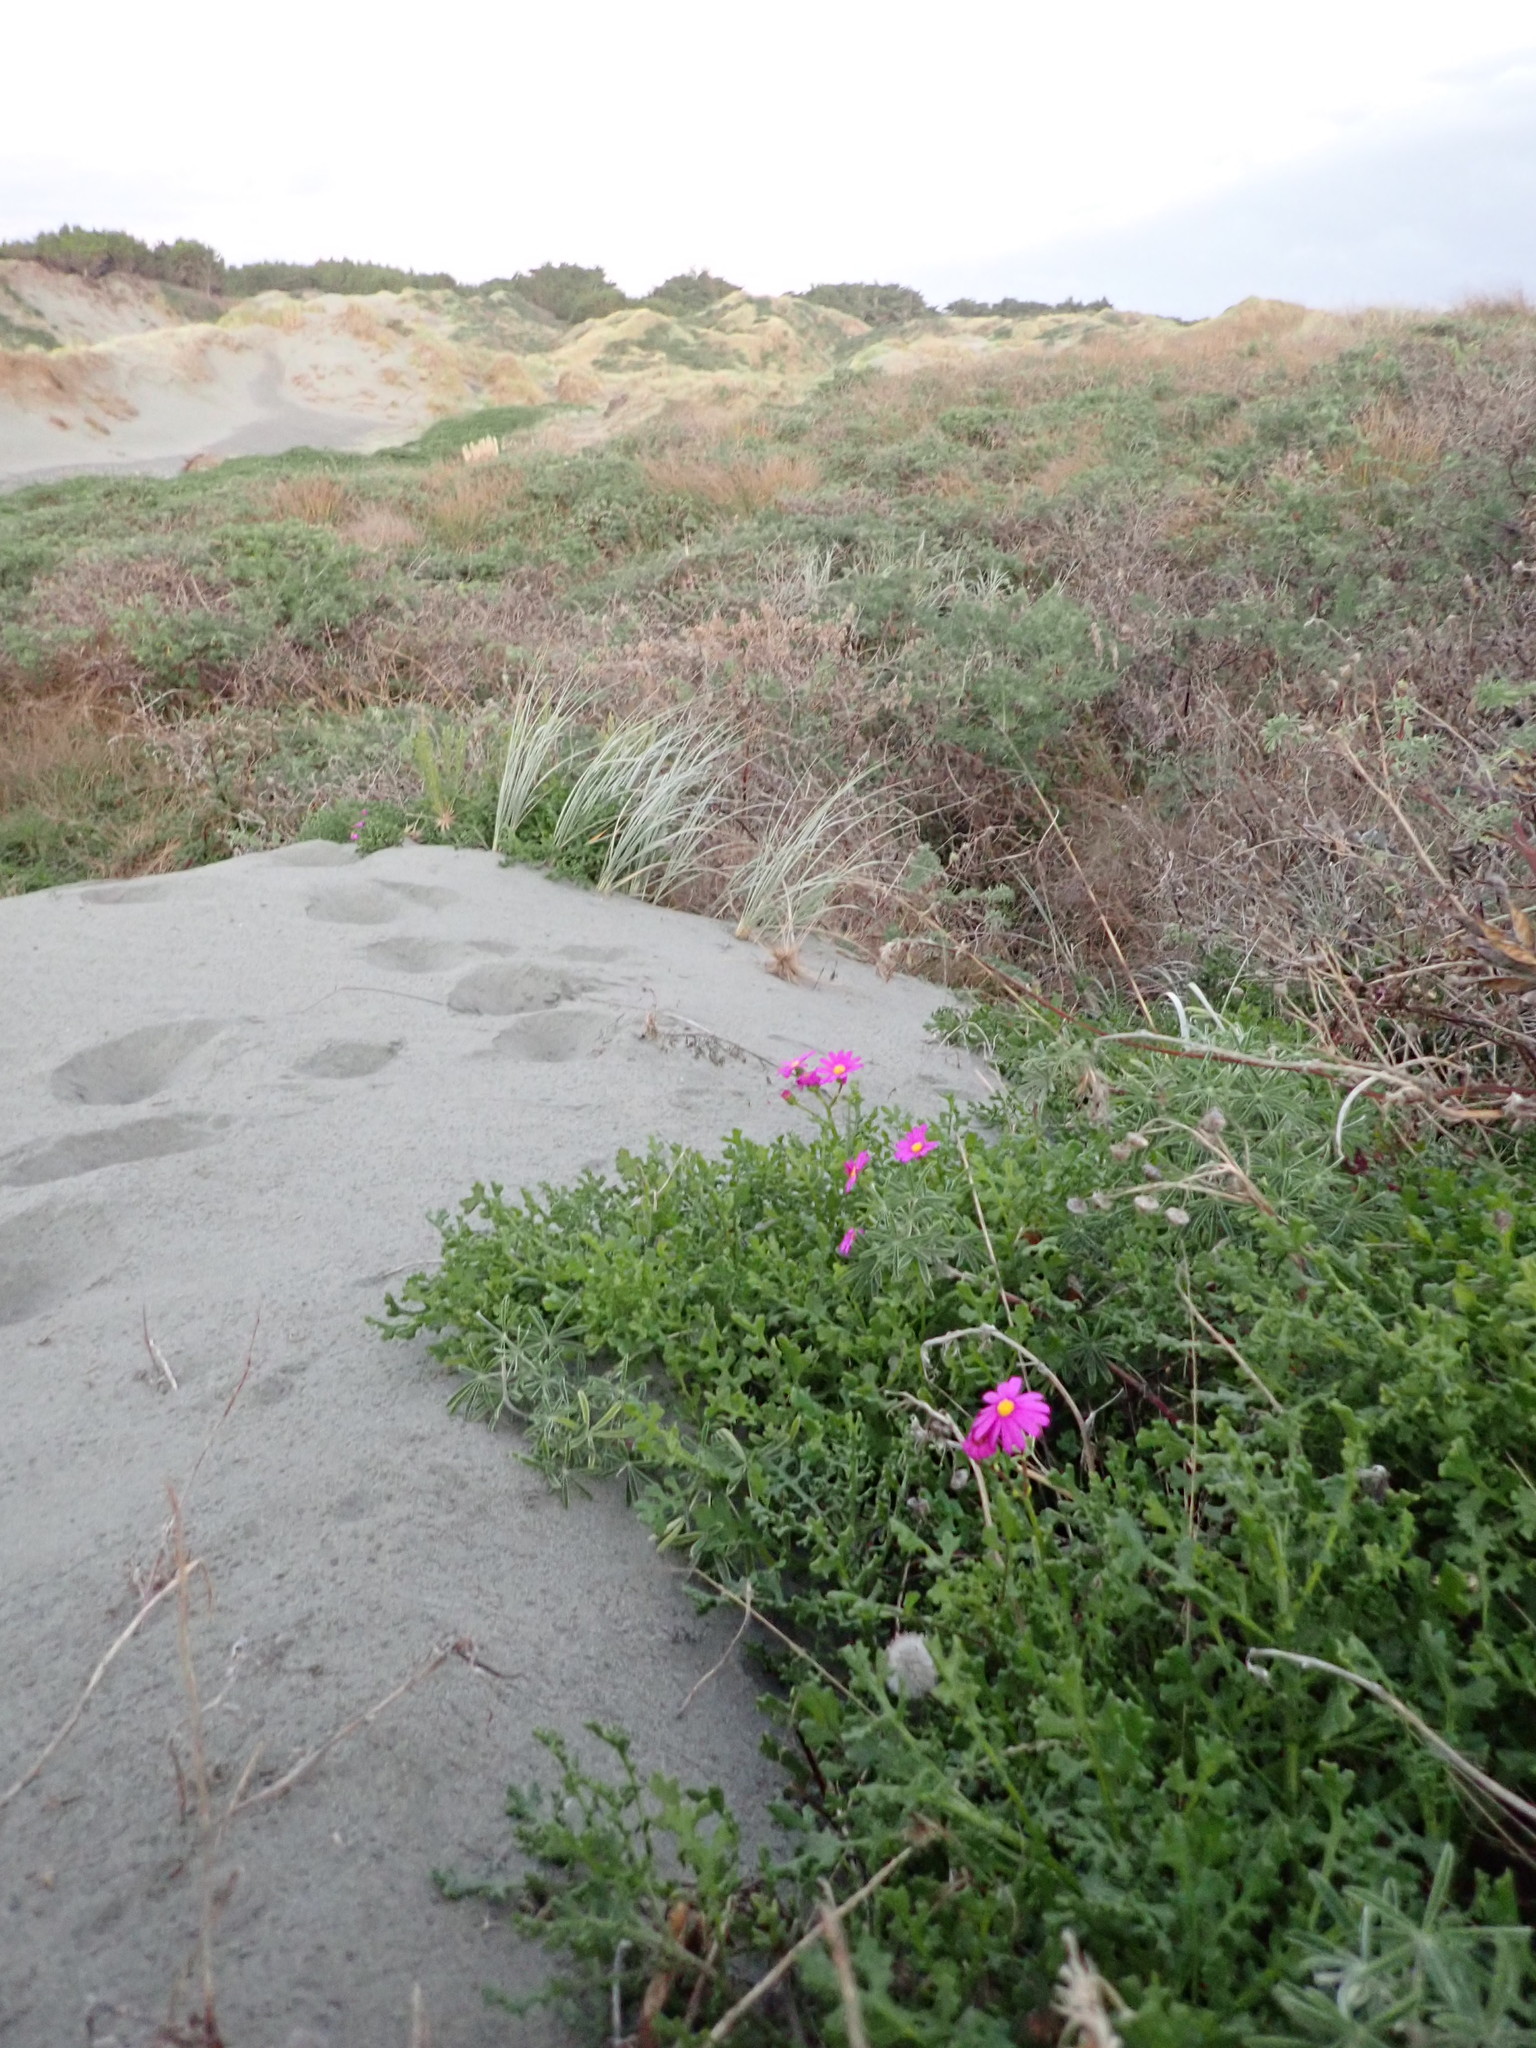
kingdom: Plantae
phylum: Tracheophyta
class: Magnoliopsida
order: Asterales
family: Asteraceae
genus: Senecio
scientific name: Senecio elegans
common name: Purple groundsel
